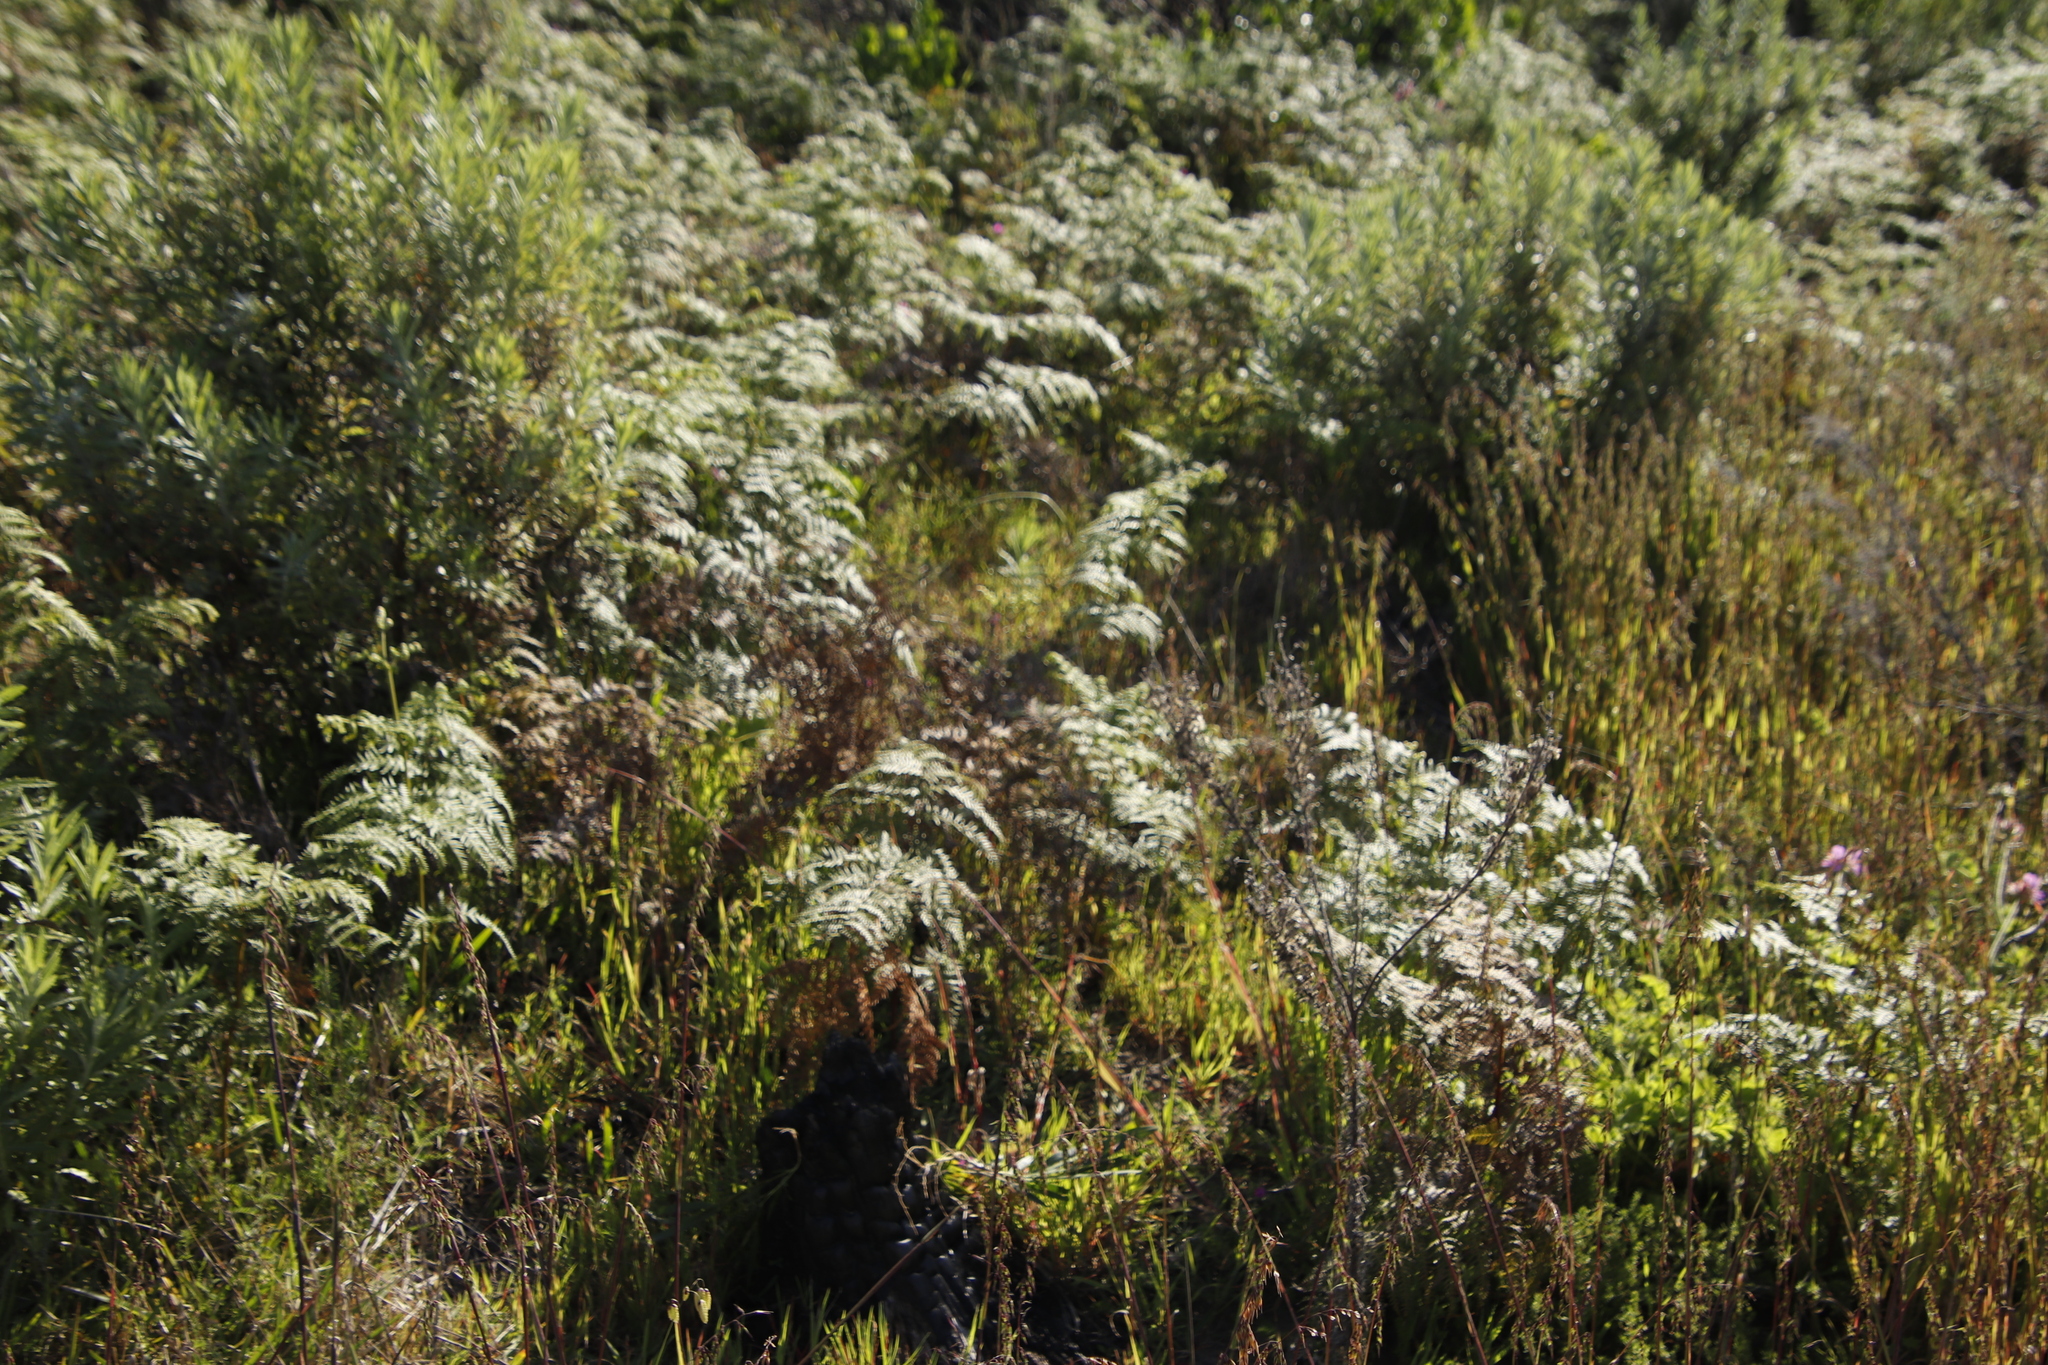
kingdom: Plantae
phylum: Tracheophyta
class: Polypodiopsida
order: Polypodiales
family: Dennstaedtiaceae
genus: Pteridium
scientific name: Pteridium aquilinum
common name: Bracken
